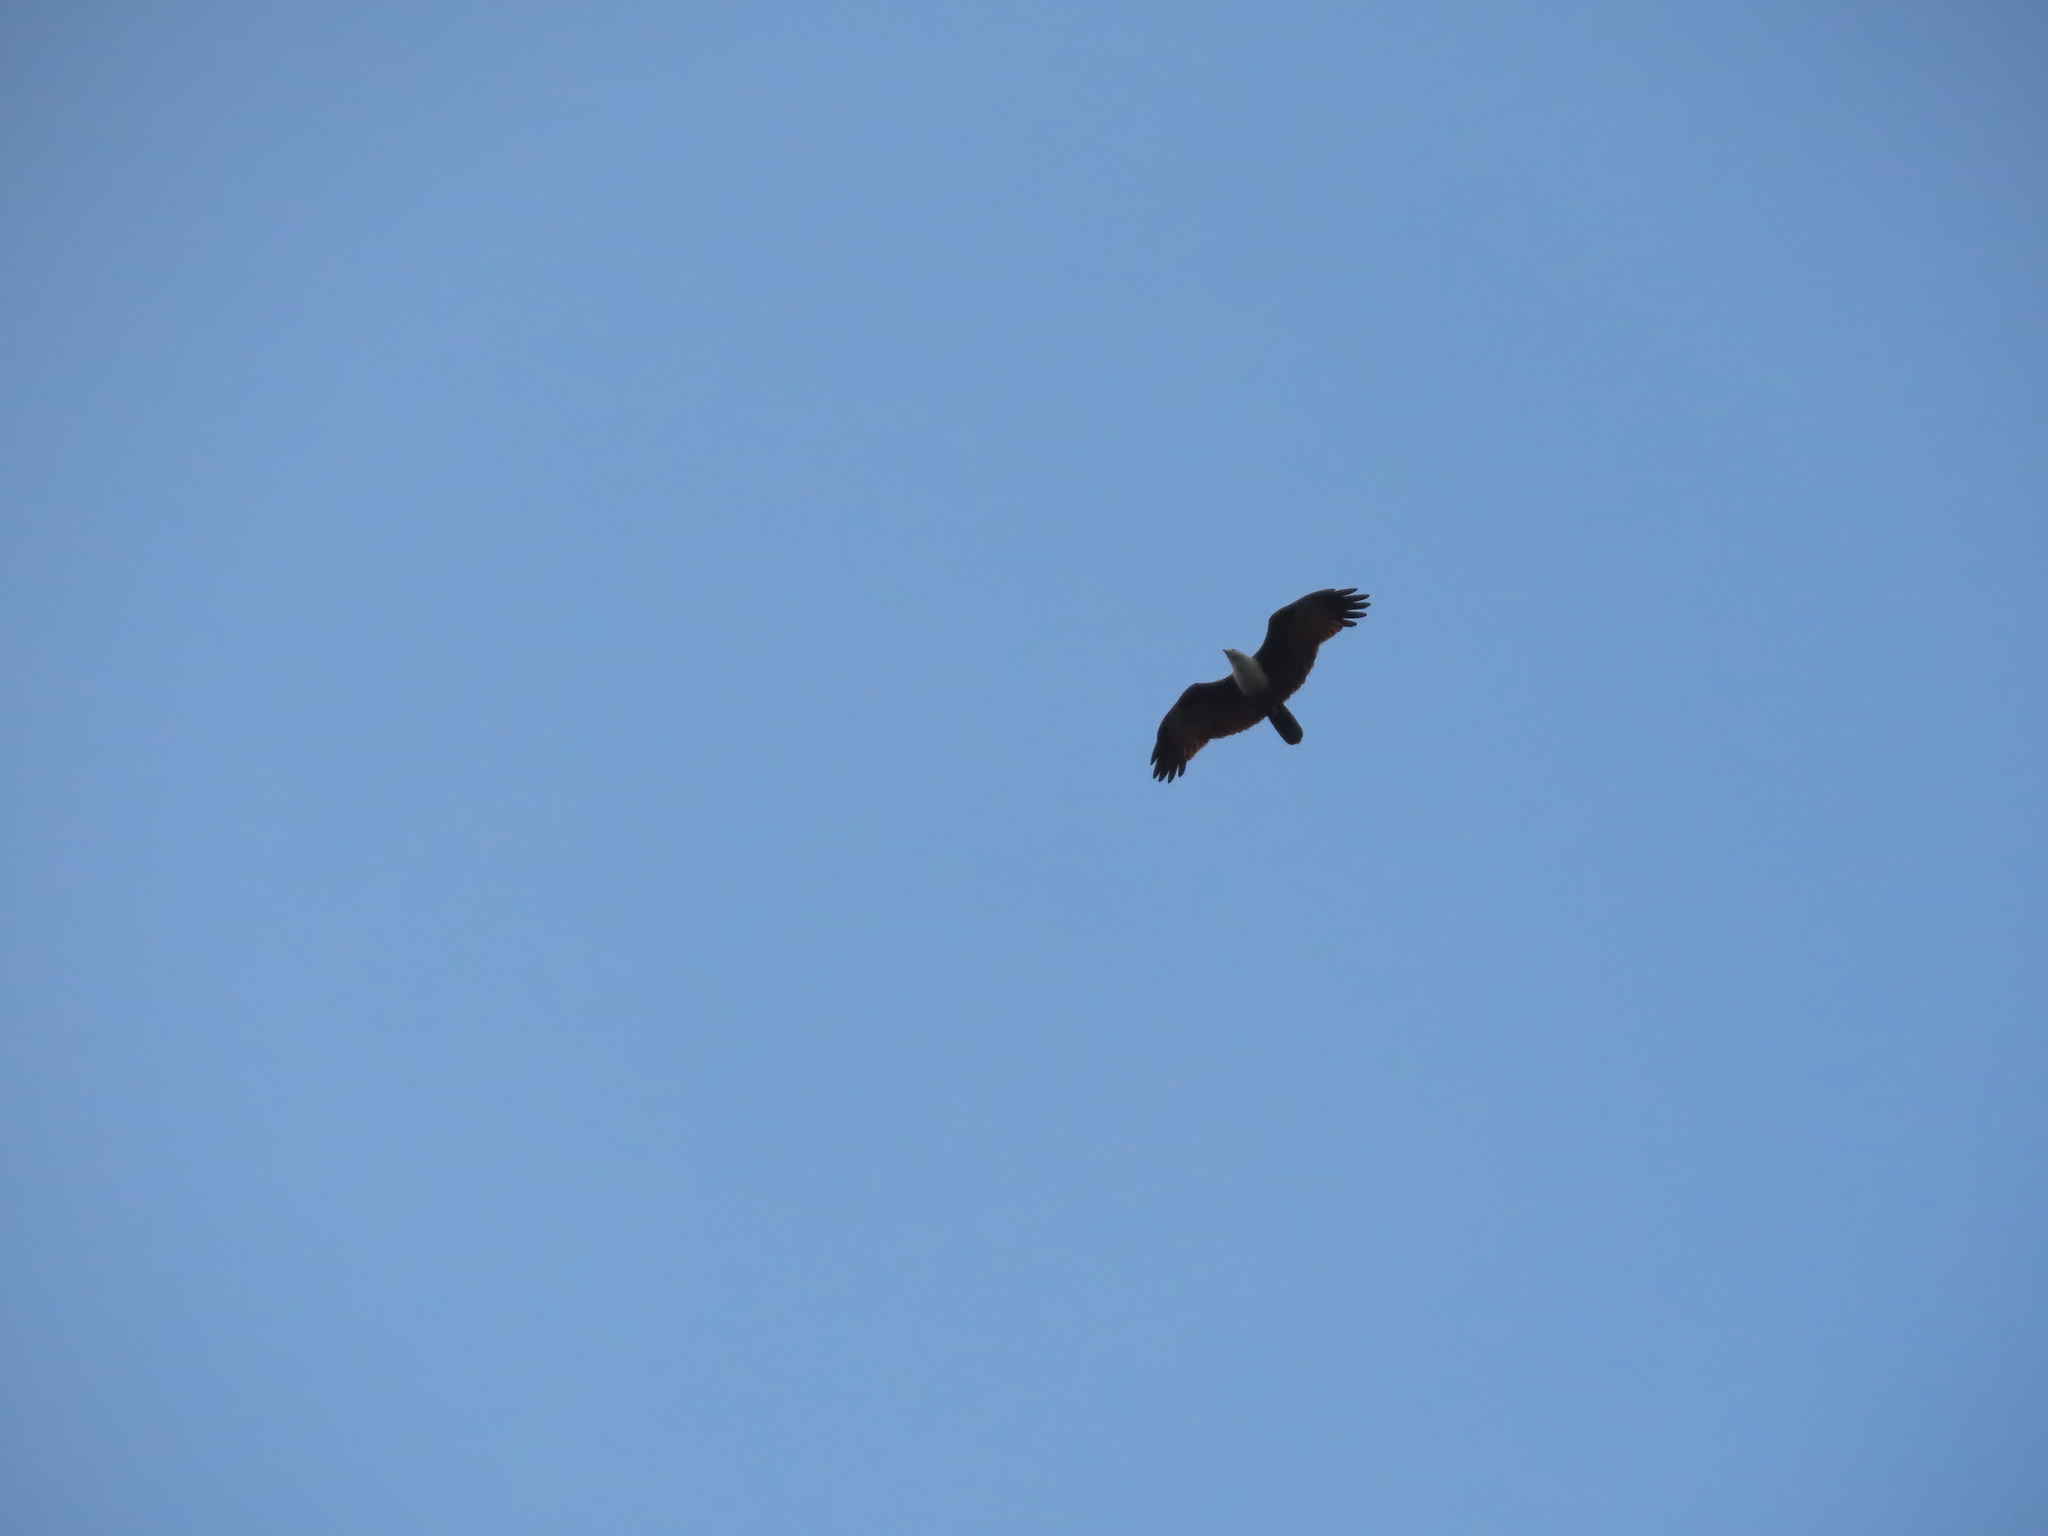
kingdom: Animalia
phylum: Chordata
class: Aves
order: Accipitriformes
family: Accipitridae
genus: Haliastur
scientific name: Haliastur indus
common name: Brahminy kite
